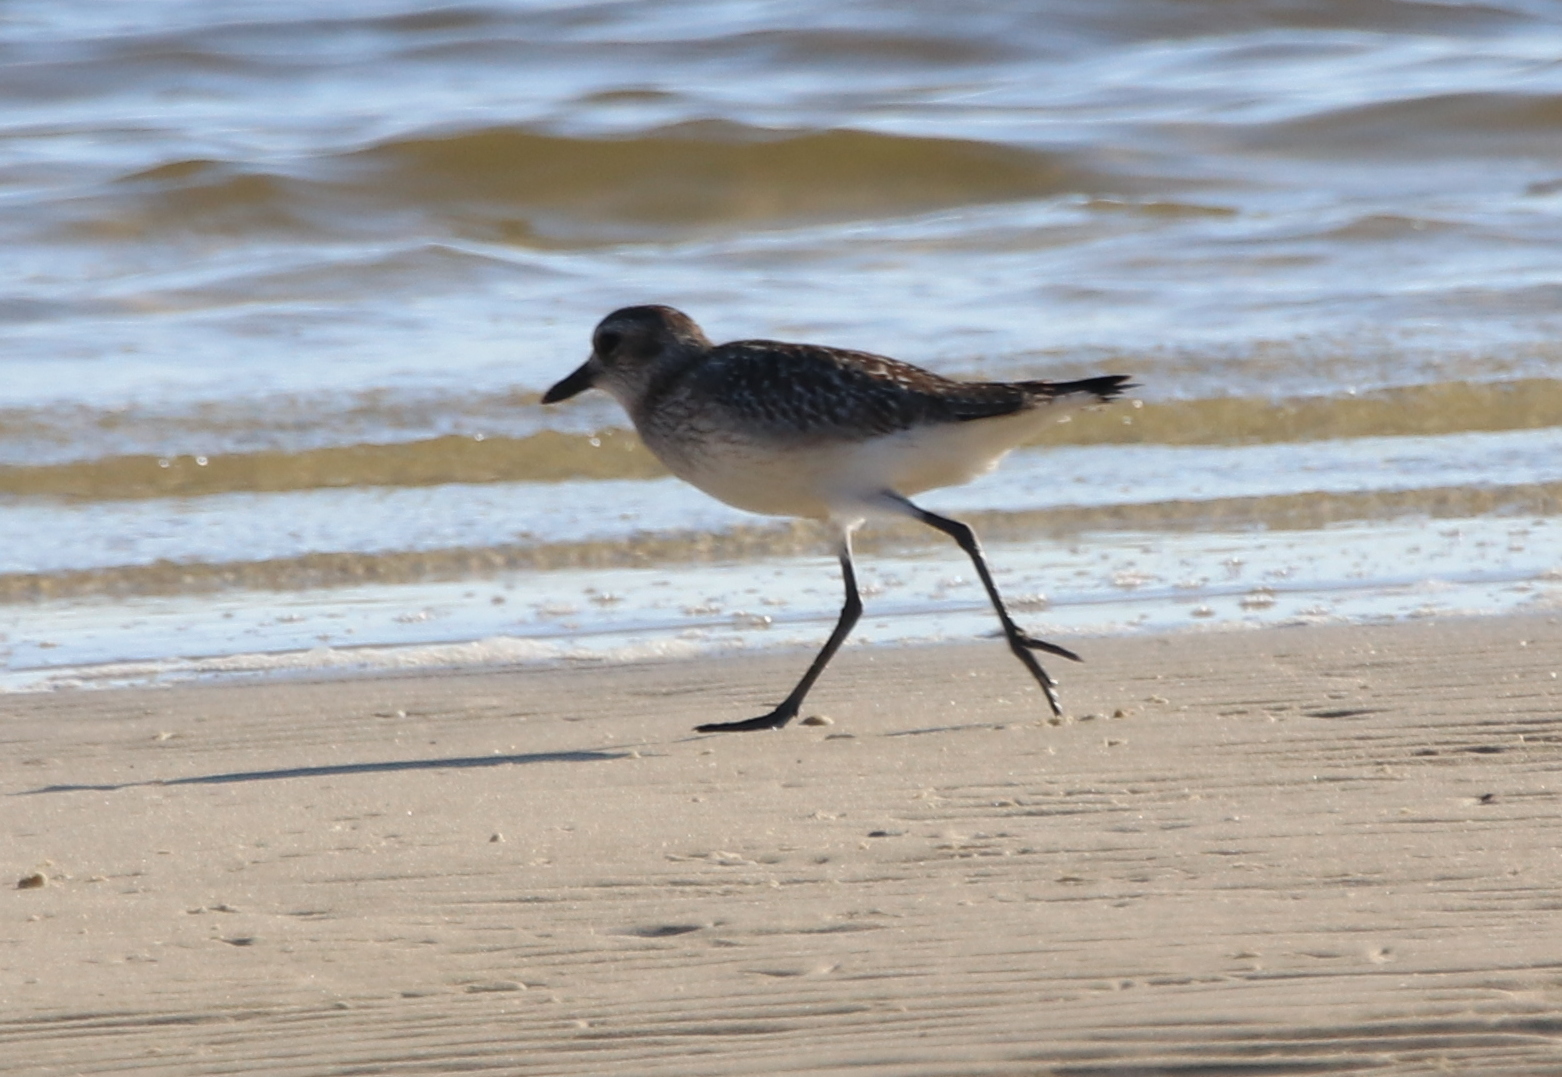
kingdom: Animalia
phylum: Chordata
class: Aves
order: Charadriiformes
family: Charadriidae
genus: Pluvialis
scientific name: Pluvialis squatarola
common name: Grey plover
